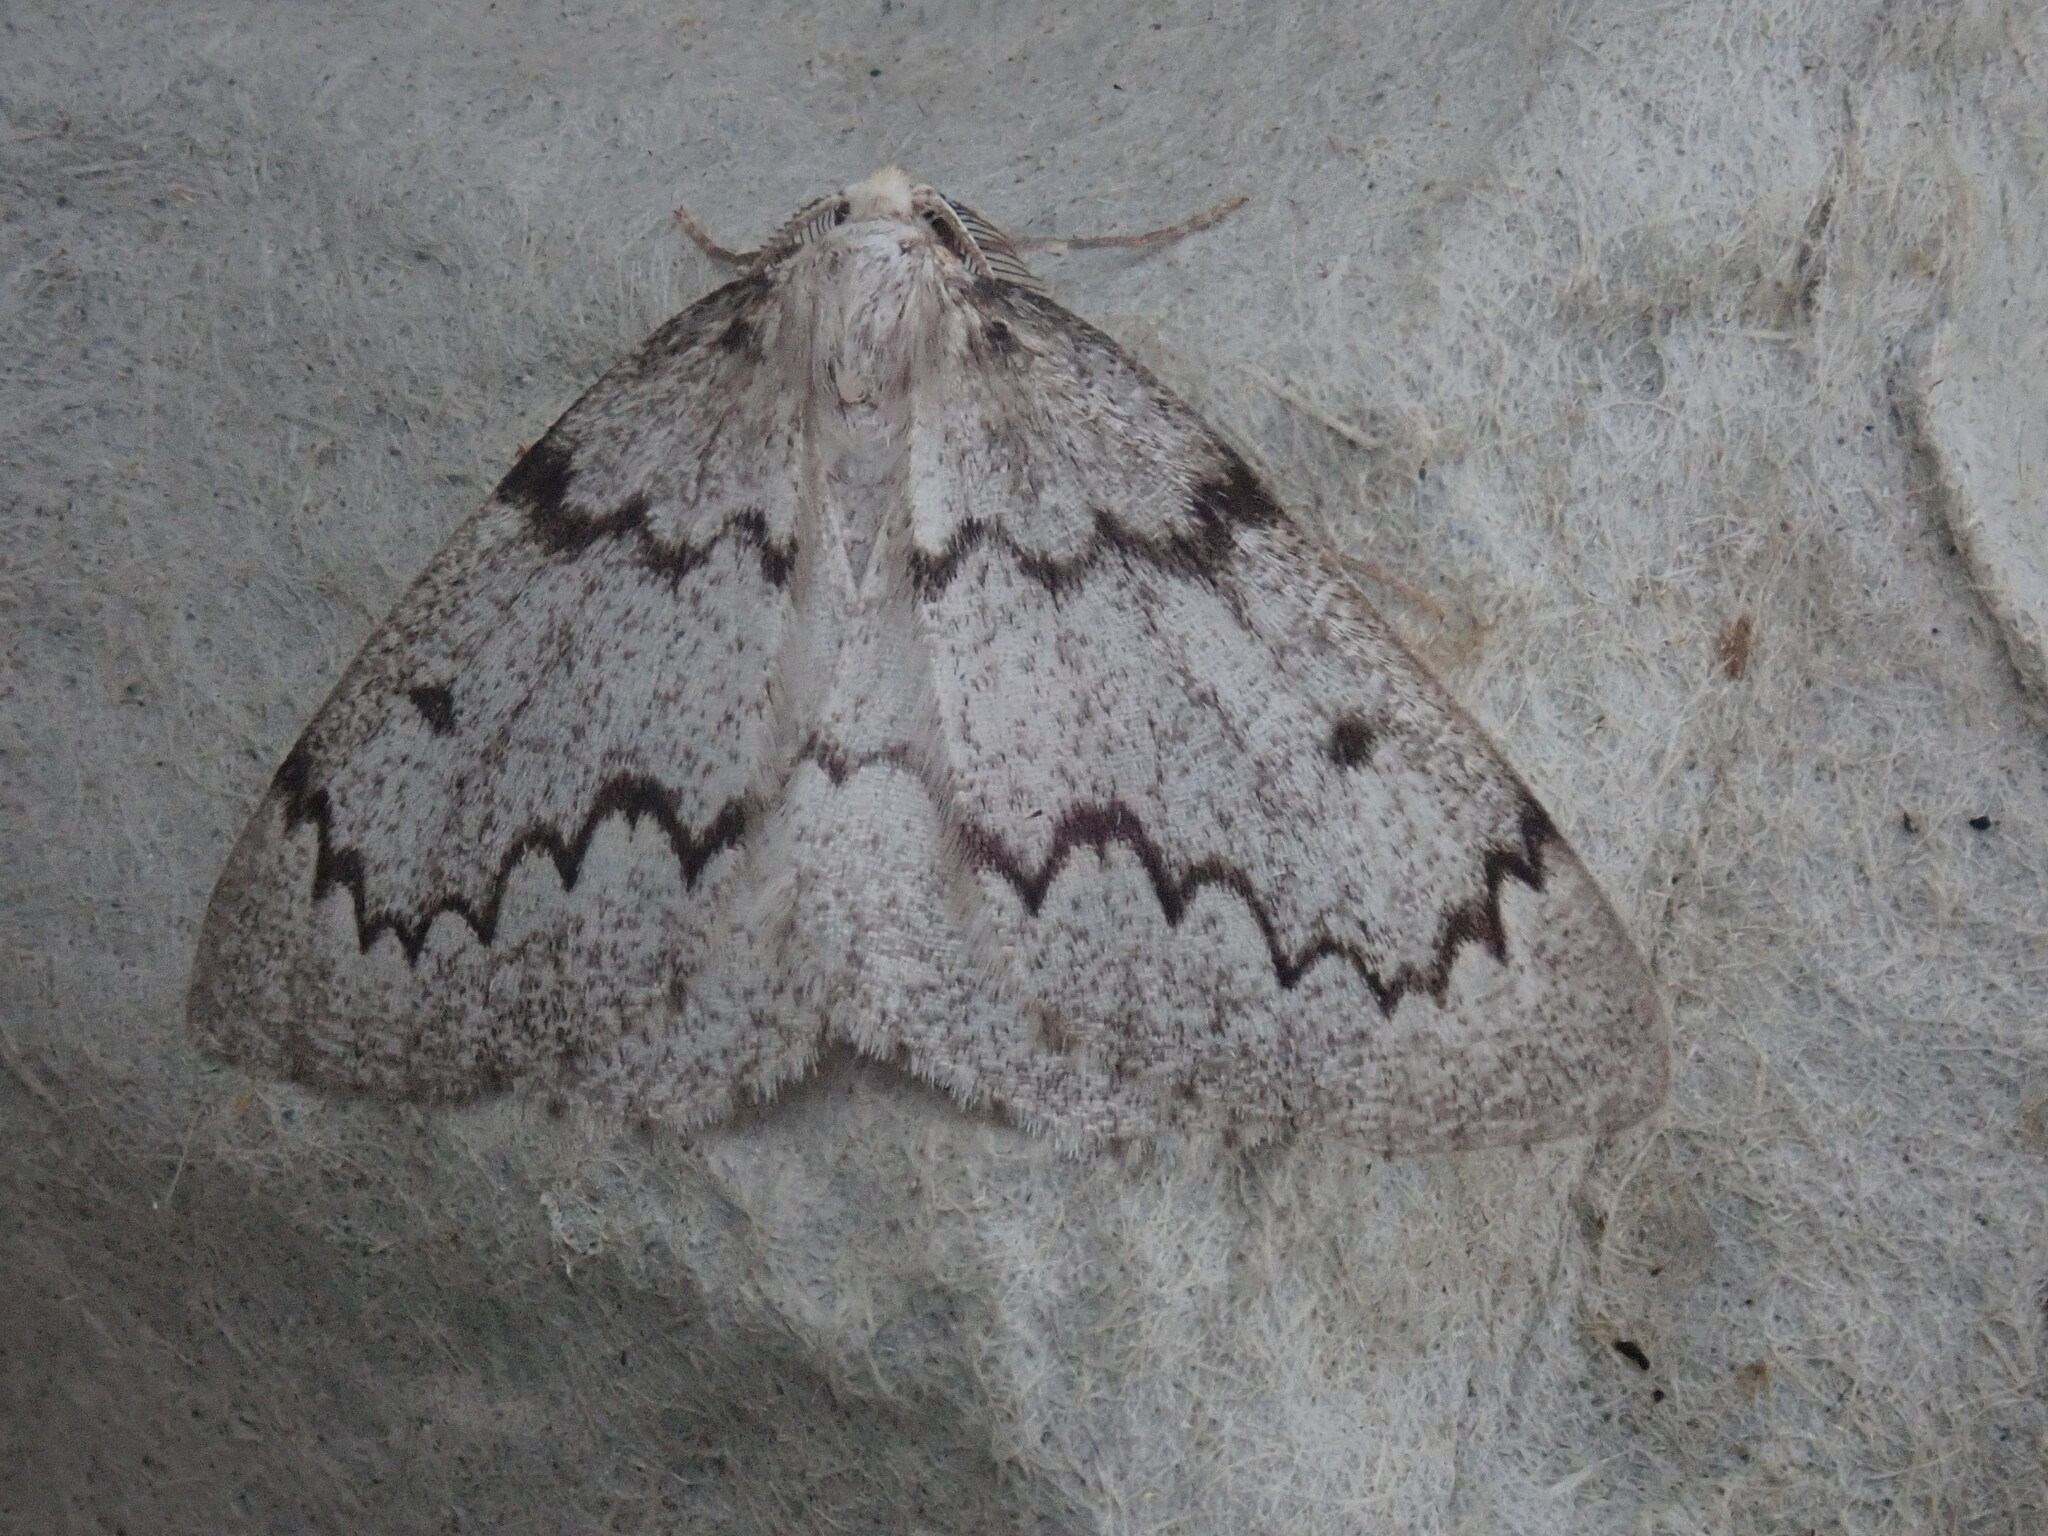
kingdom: Animalia
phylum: Arthropoda
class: Insecta
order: Lepidoptera
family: Geometridae
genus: Nepytia
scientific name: Nepytia canosaria
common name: False hemlock looper
